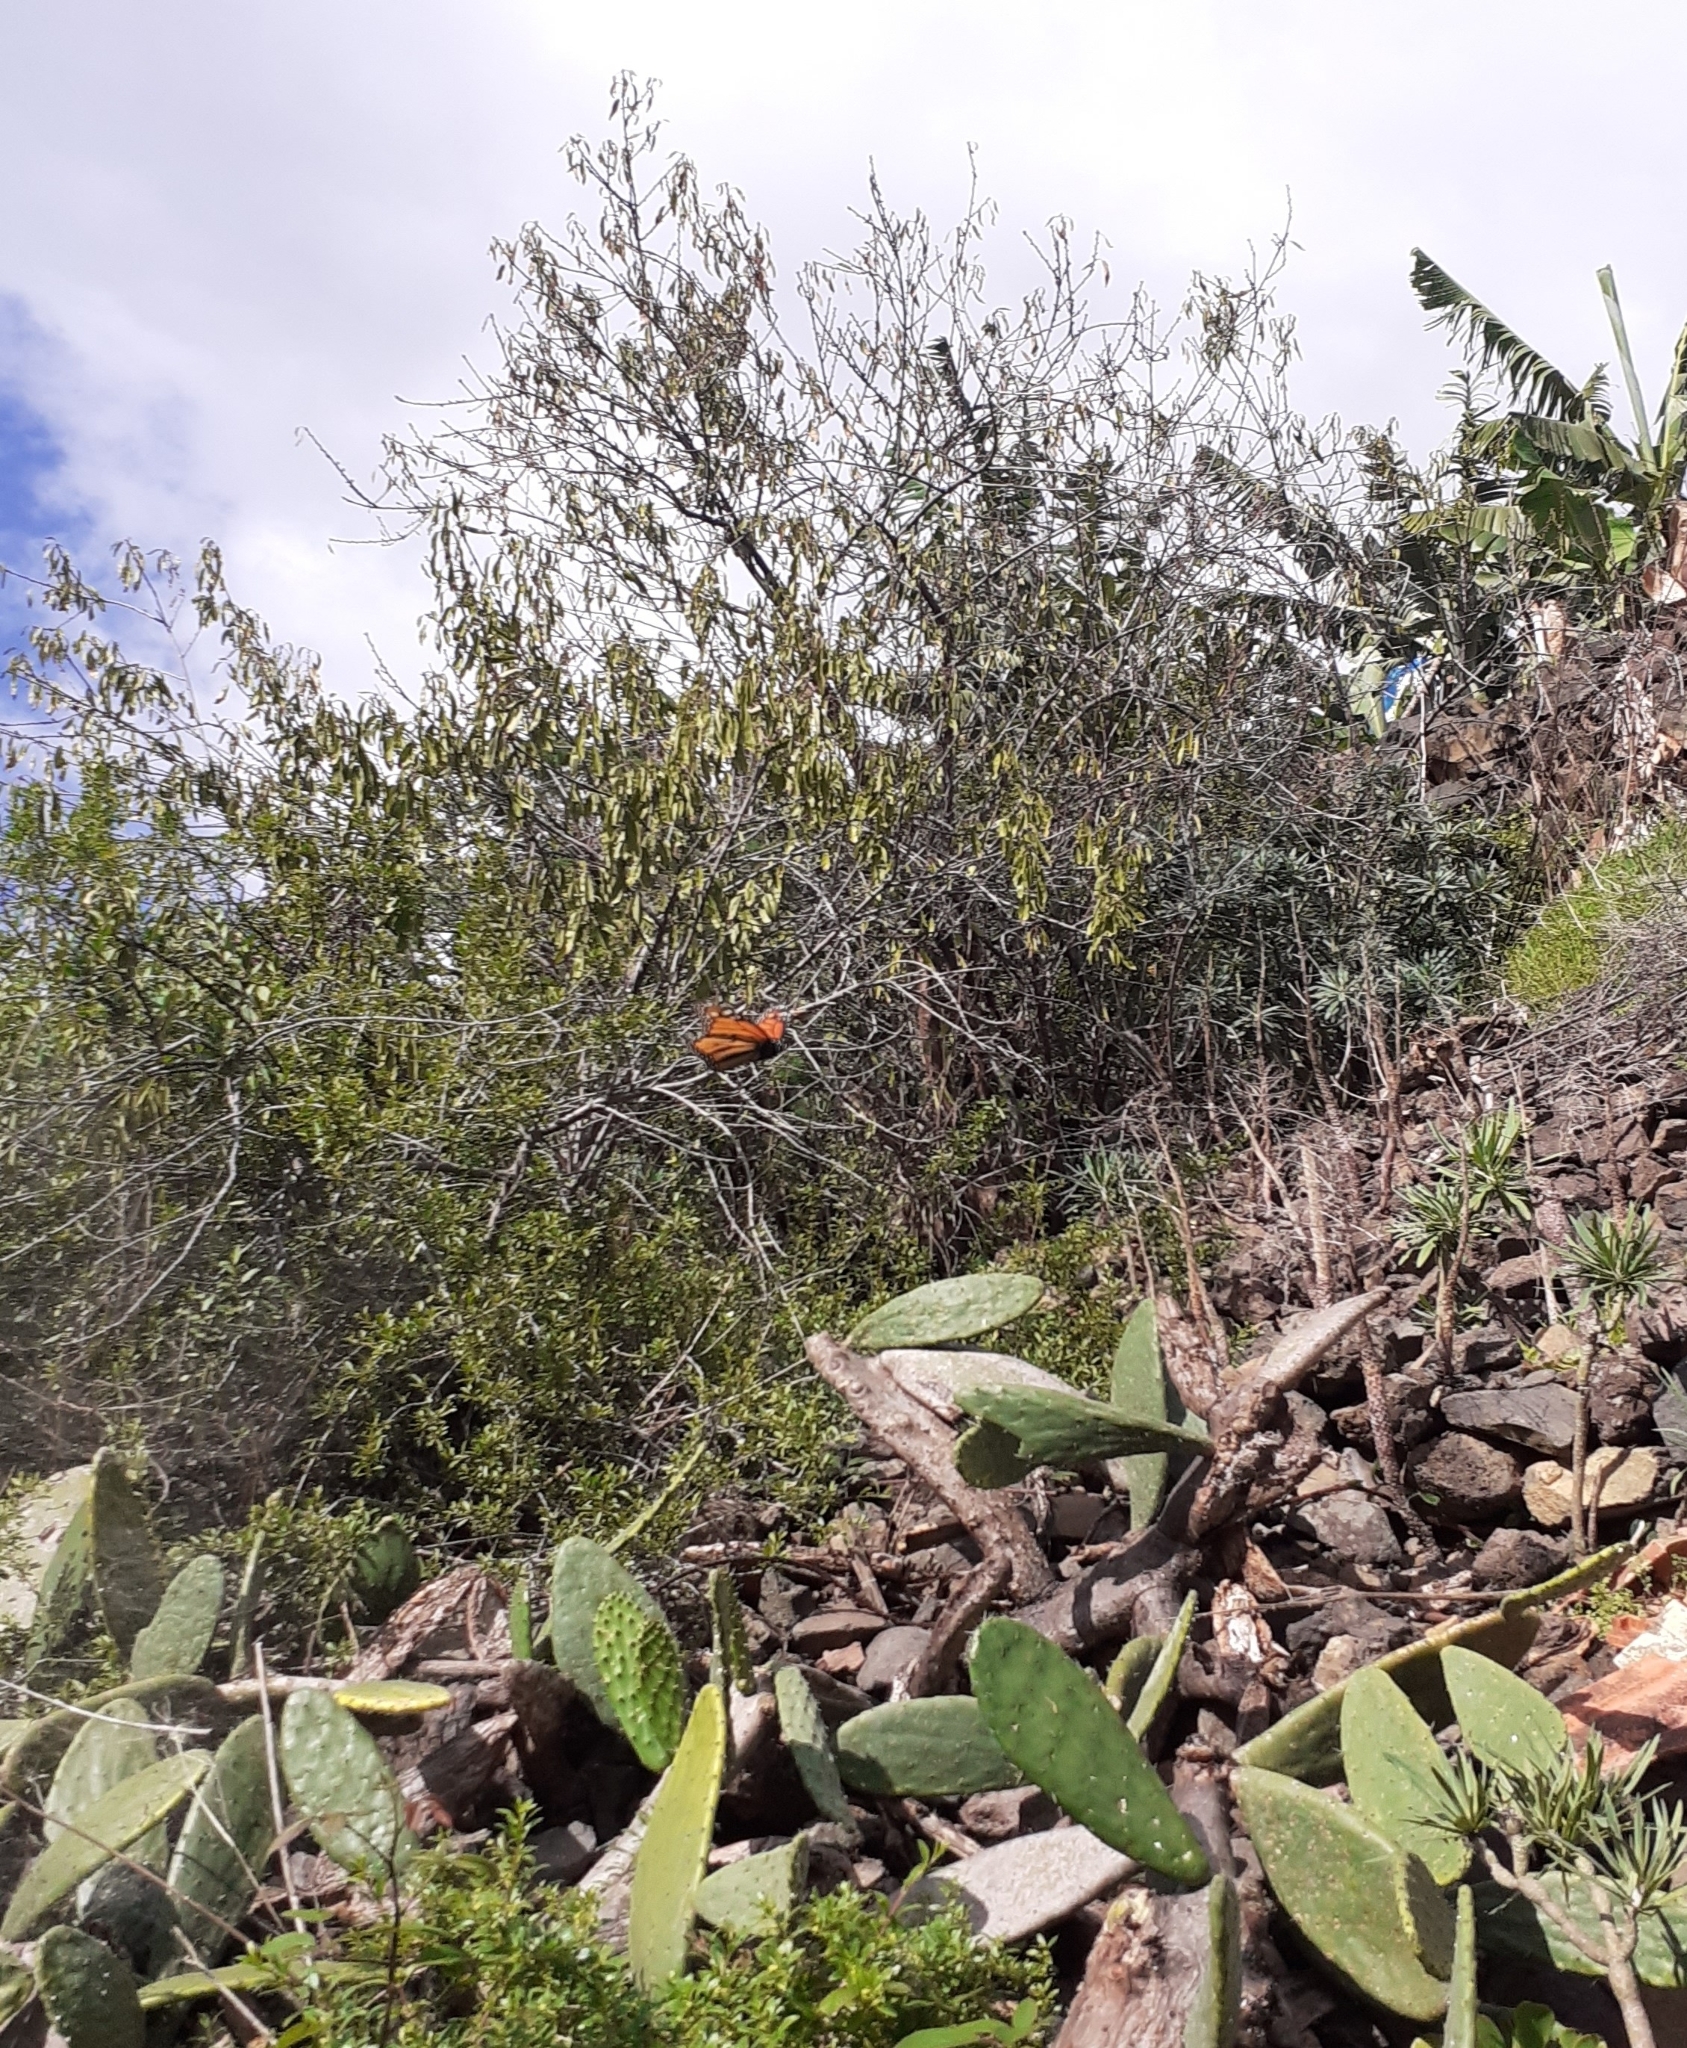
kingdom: Animalia
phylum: Arthropoda
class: Insecta
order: Lepidoptera
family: Nymphalidae
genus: Danaus
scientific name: Danaus plexippus
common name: Monarch
